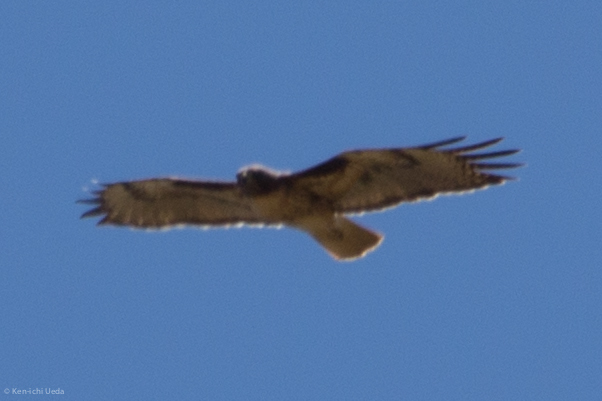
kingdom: Animalia
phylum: Chordata
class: Aves
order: Accipitriformes
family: Accipitridae
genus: Buteo
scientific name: Buteo jamaicensis
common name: Red-tailed hawk
